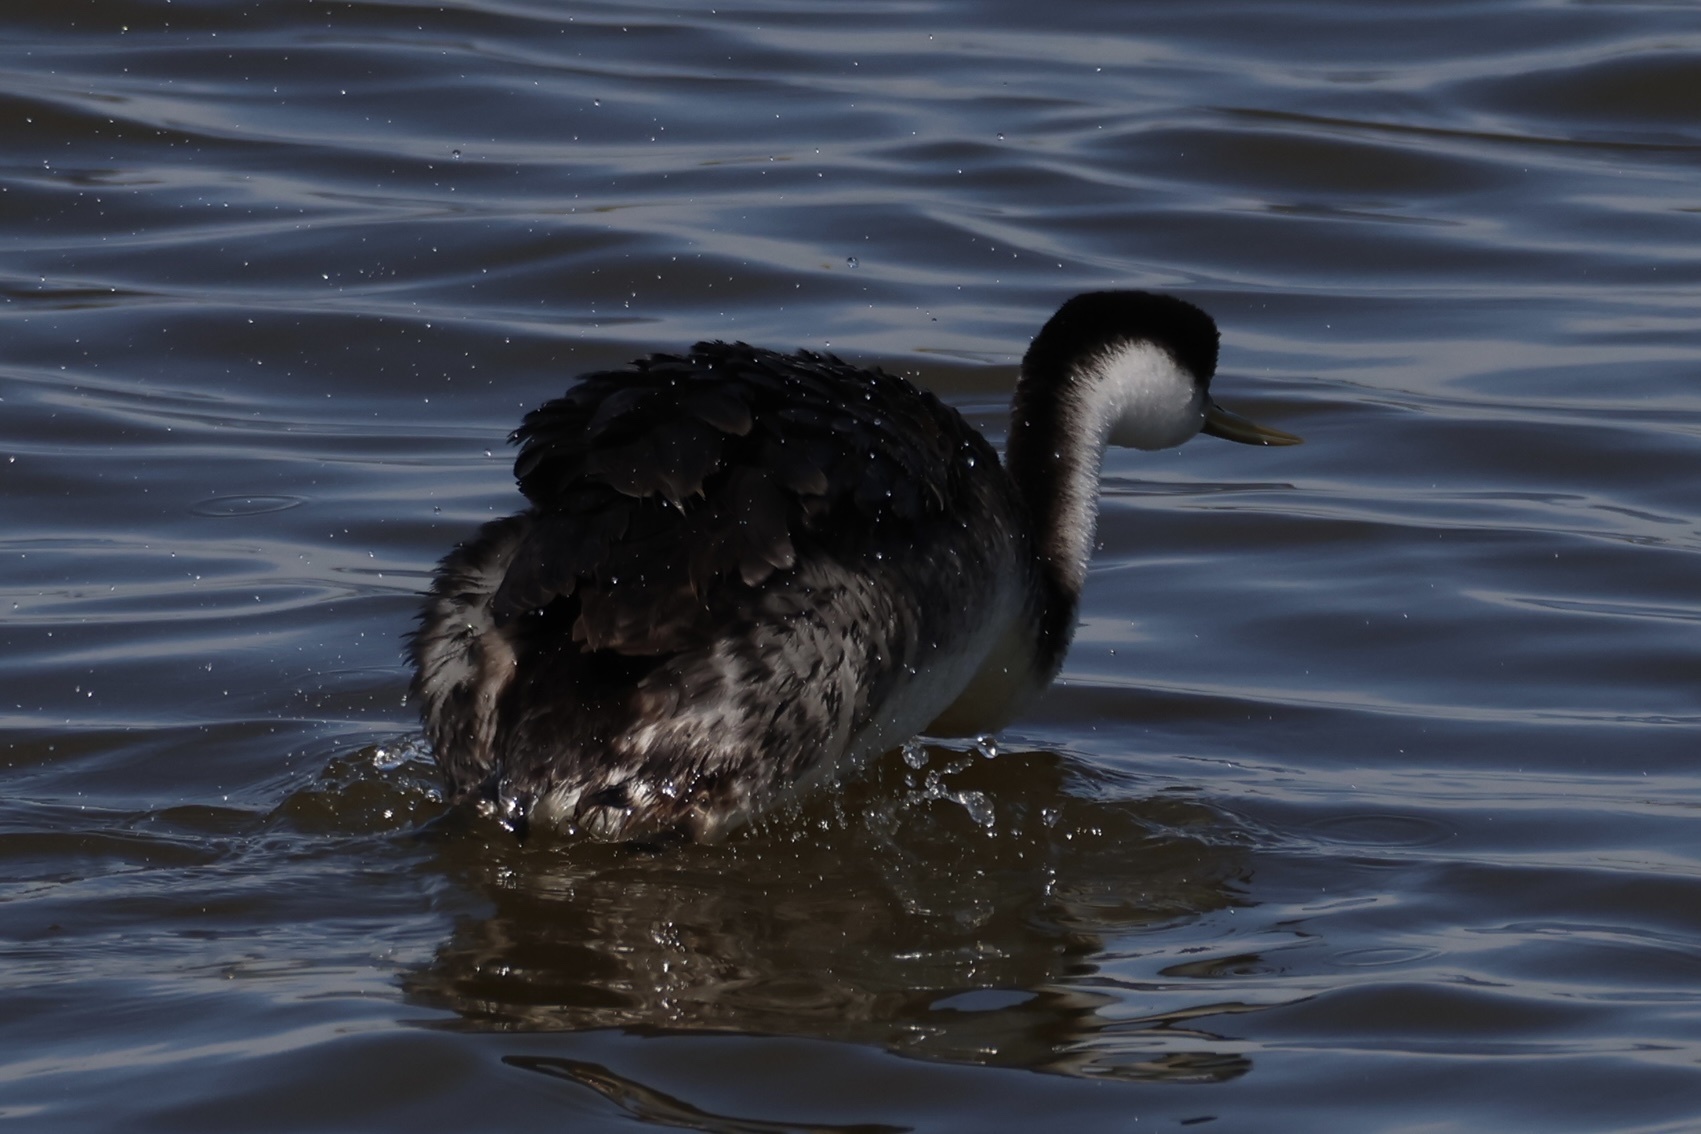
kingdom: Animalia
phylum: Chordata
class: Aves
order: Podicipediformes
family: Podicipedidae
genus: Aechmophorus
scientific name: Aechmophorus occidentalis
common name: Western grebe
